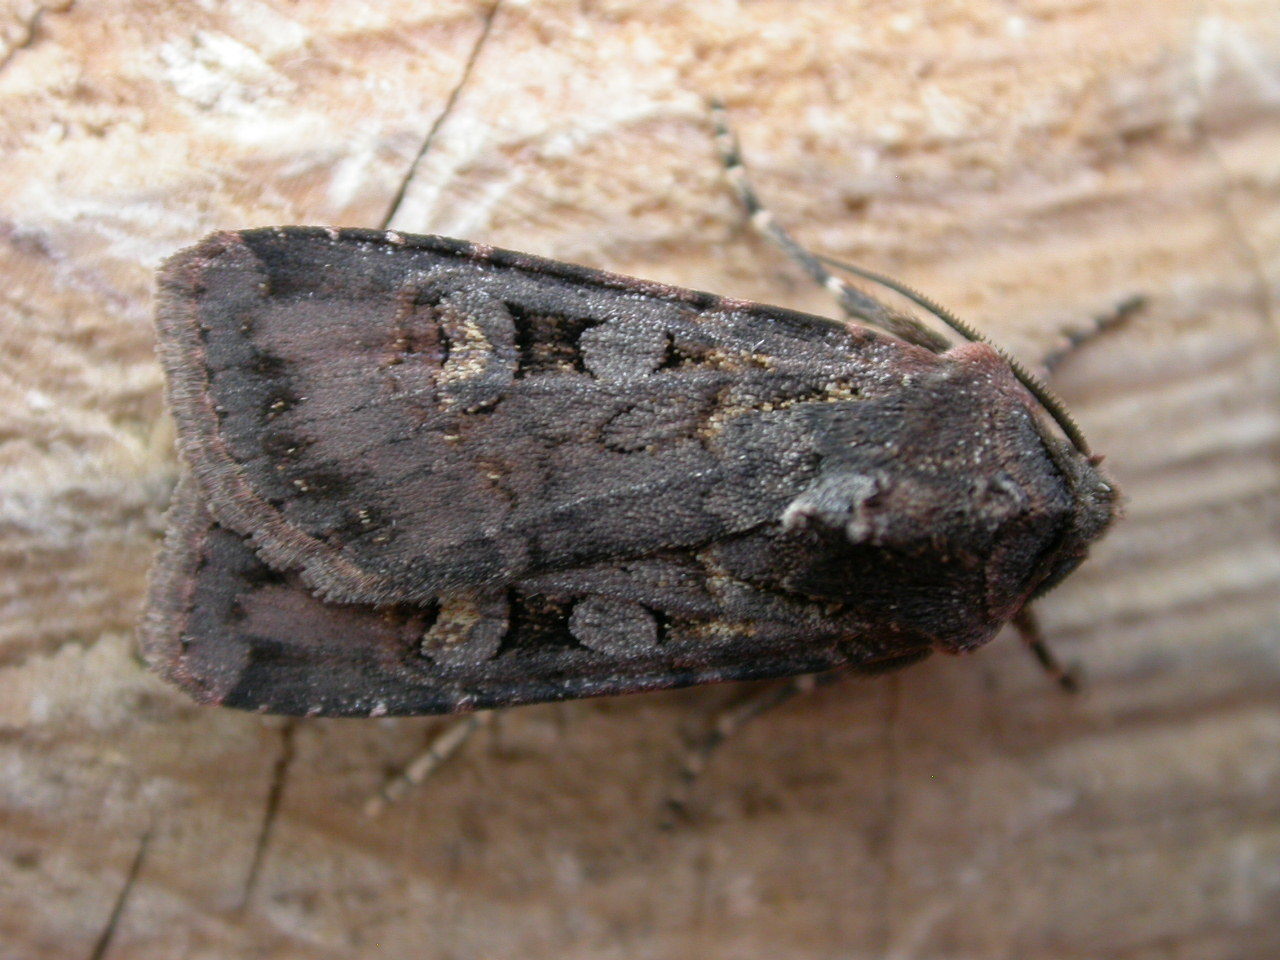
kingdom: Animalia
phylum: Arthropoda
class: Insecta
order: Lepidoptera
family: Noctuidae
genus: Euxoa
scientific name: Euxoa nigricans
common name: Garden dart
